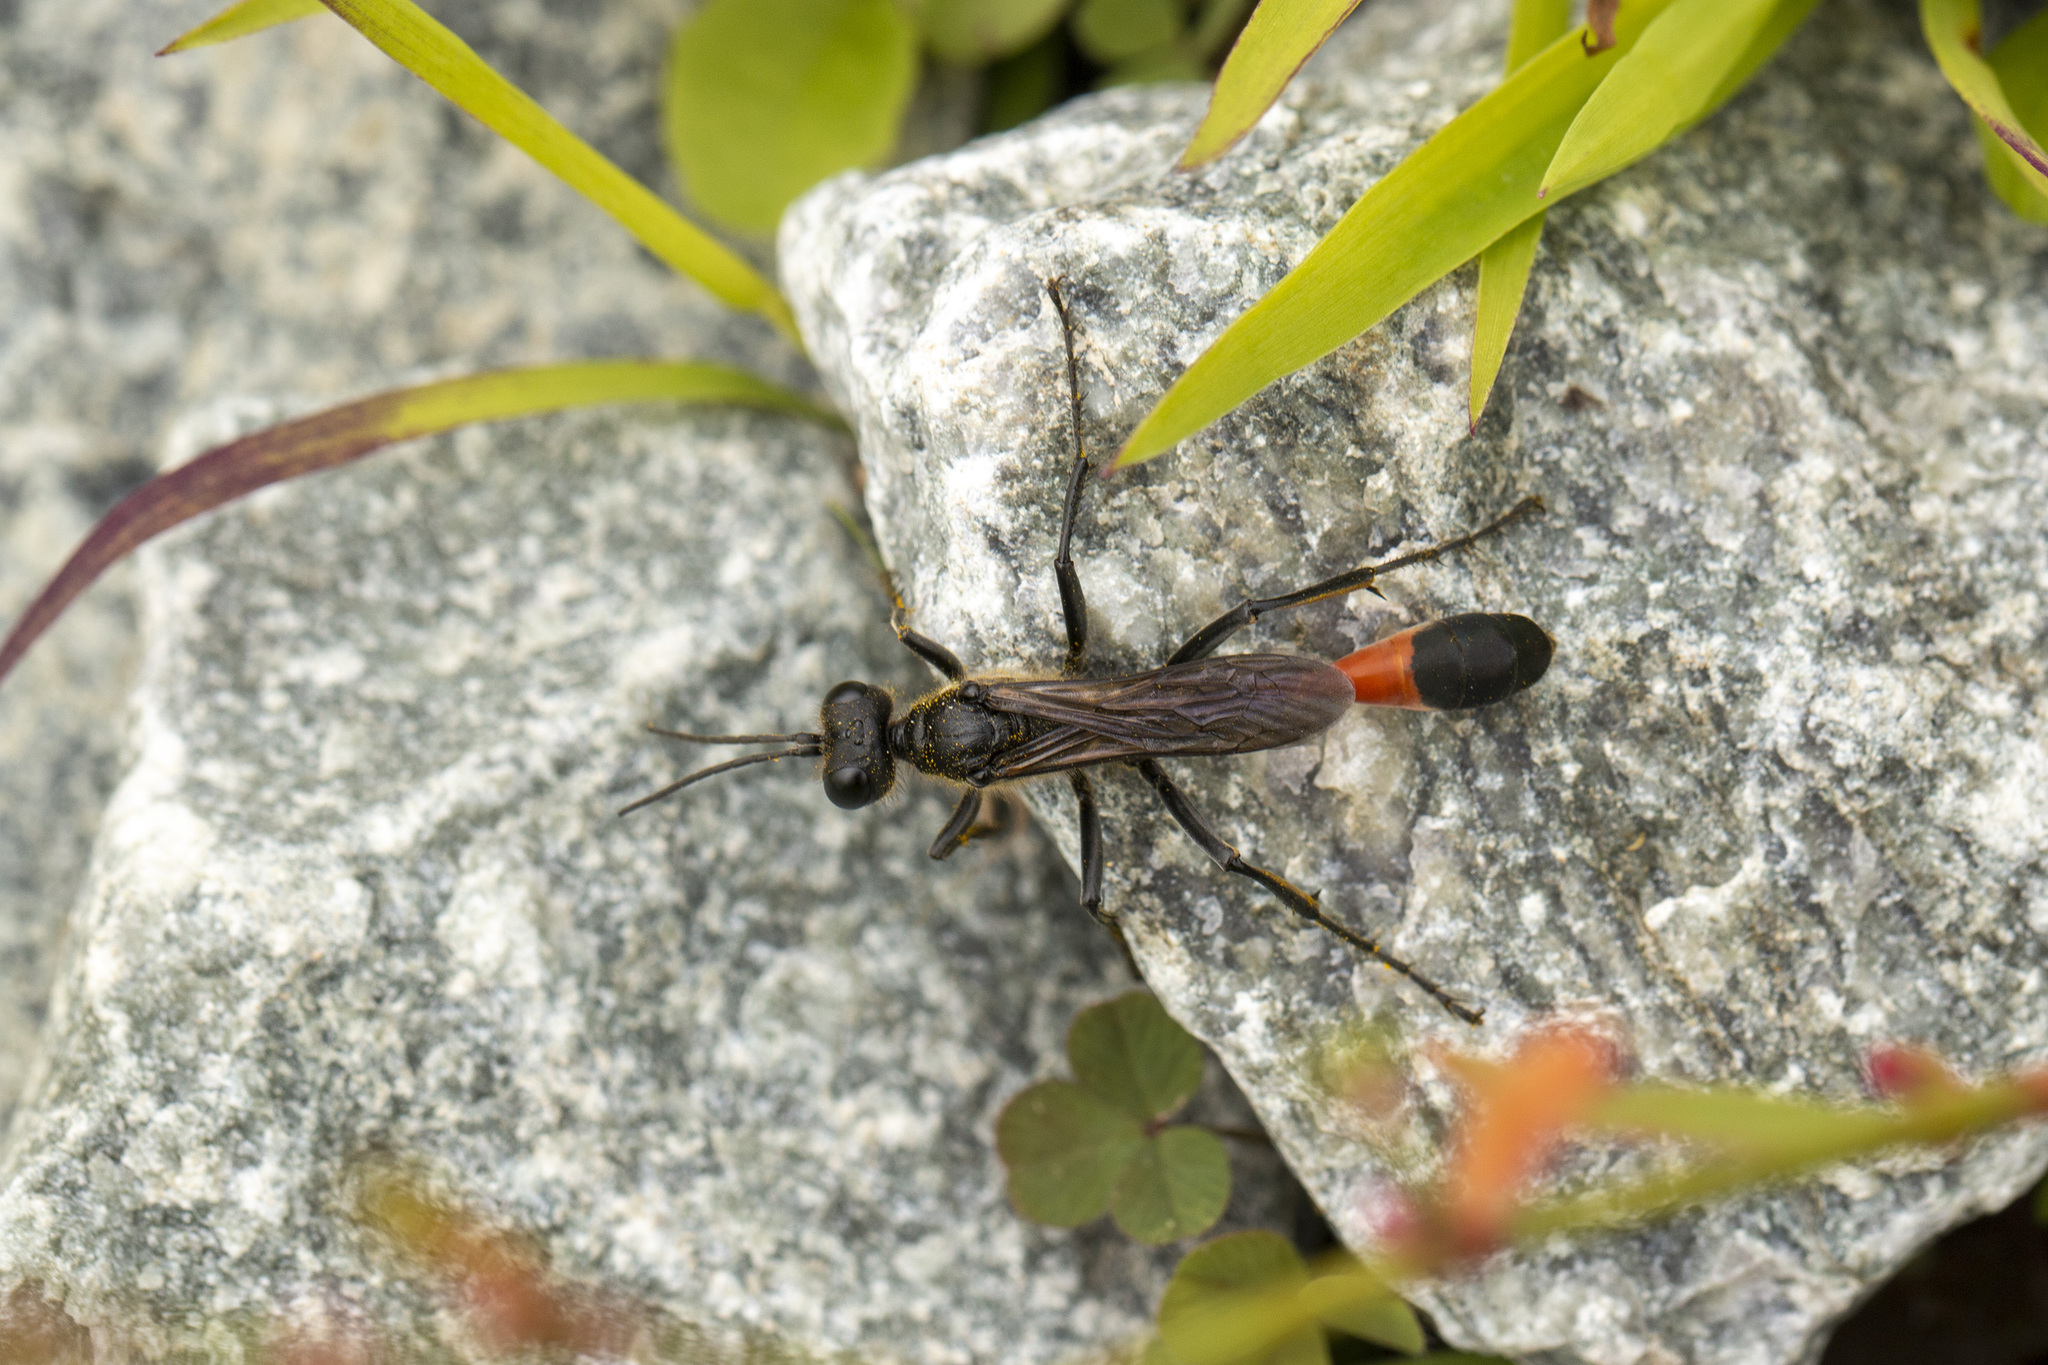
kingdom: Animalia
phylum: Arthropoda
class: Insecta
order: Hymenoptera
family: Sphecidae
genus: Ammophila
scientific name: Ammophila sabulosa
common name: Red banded sand wasp
